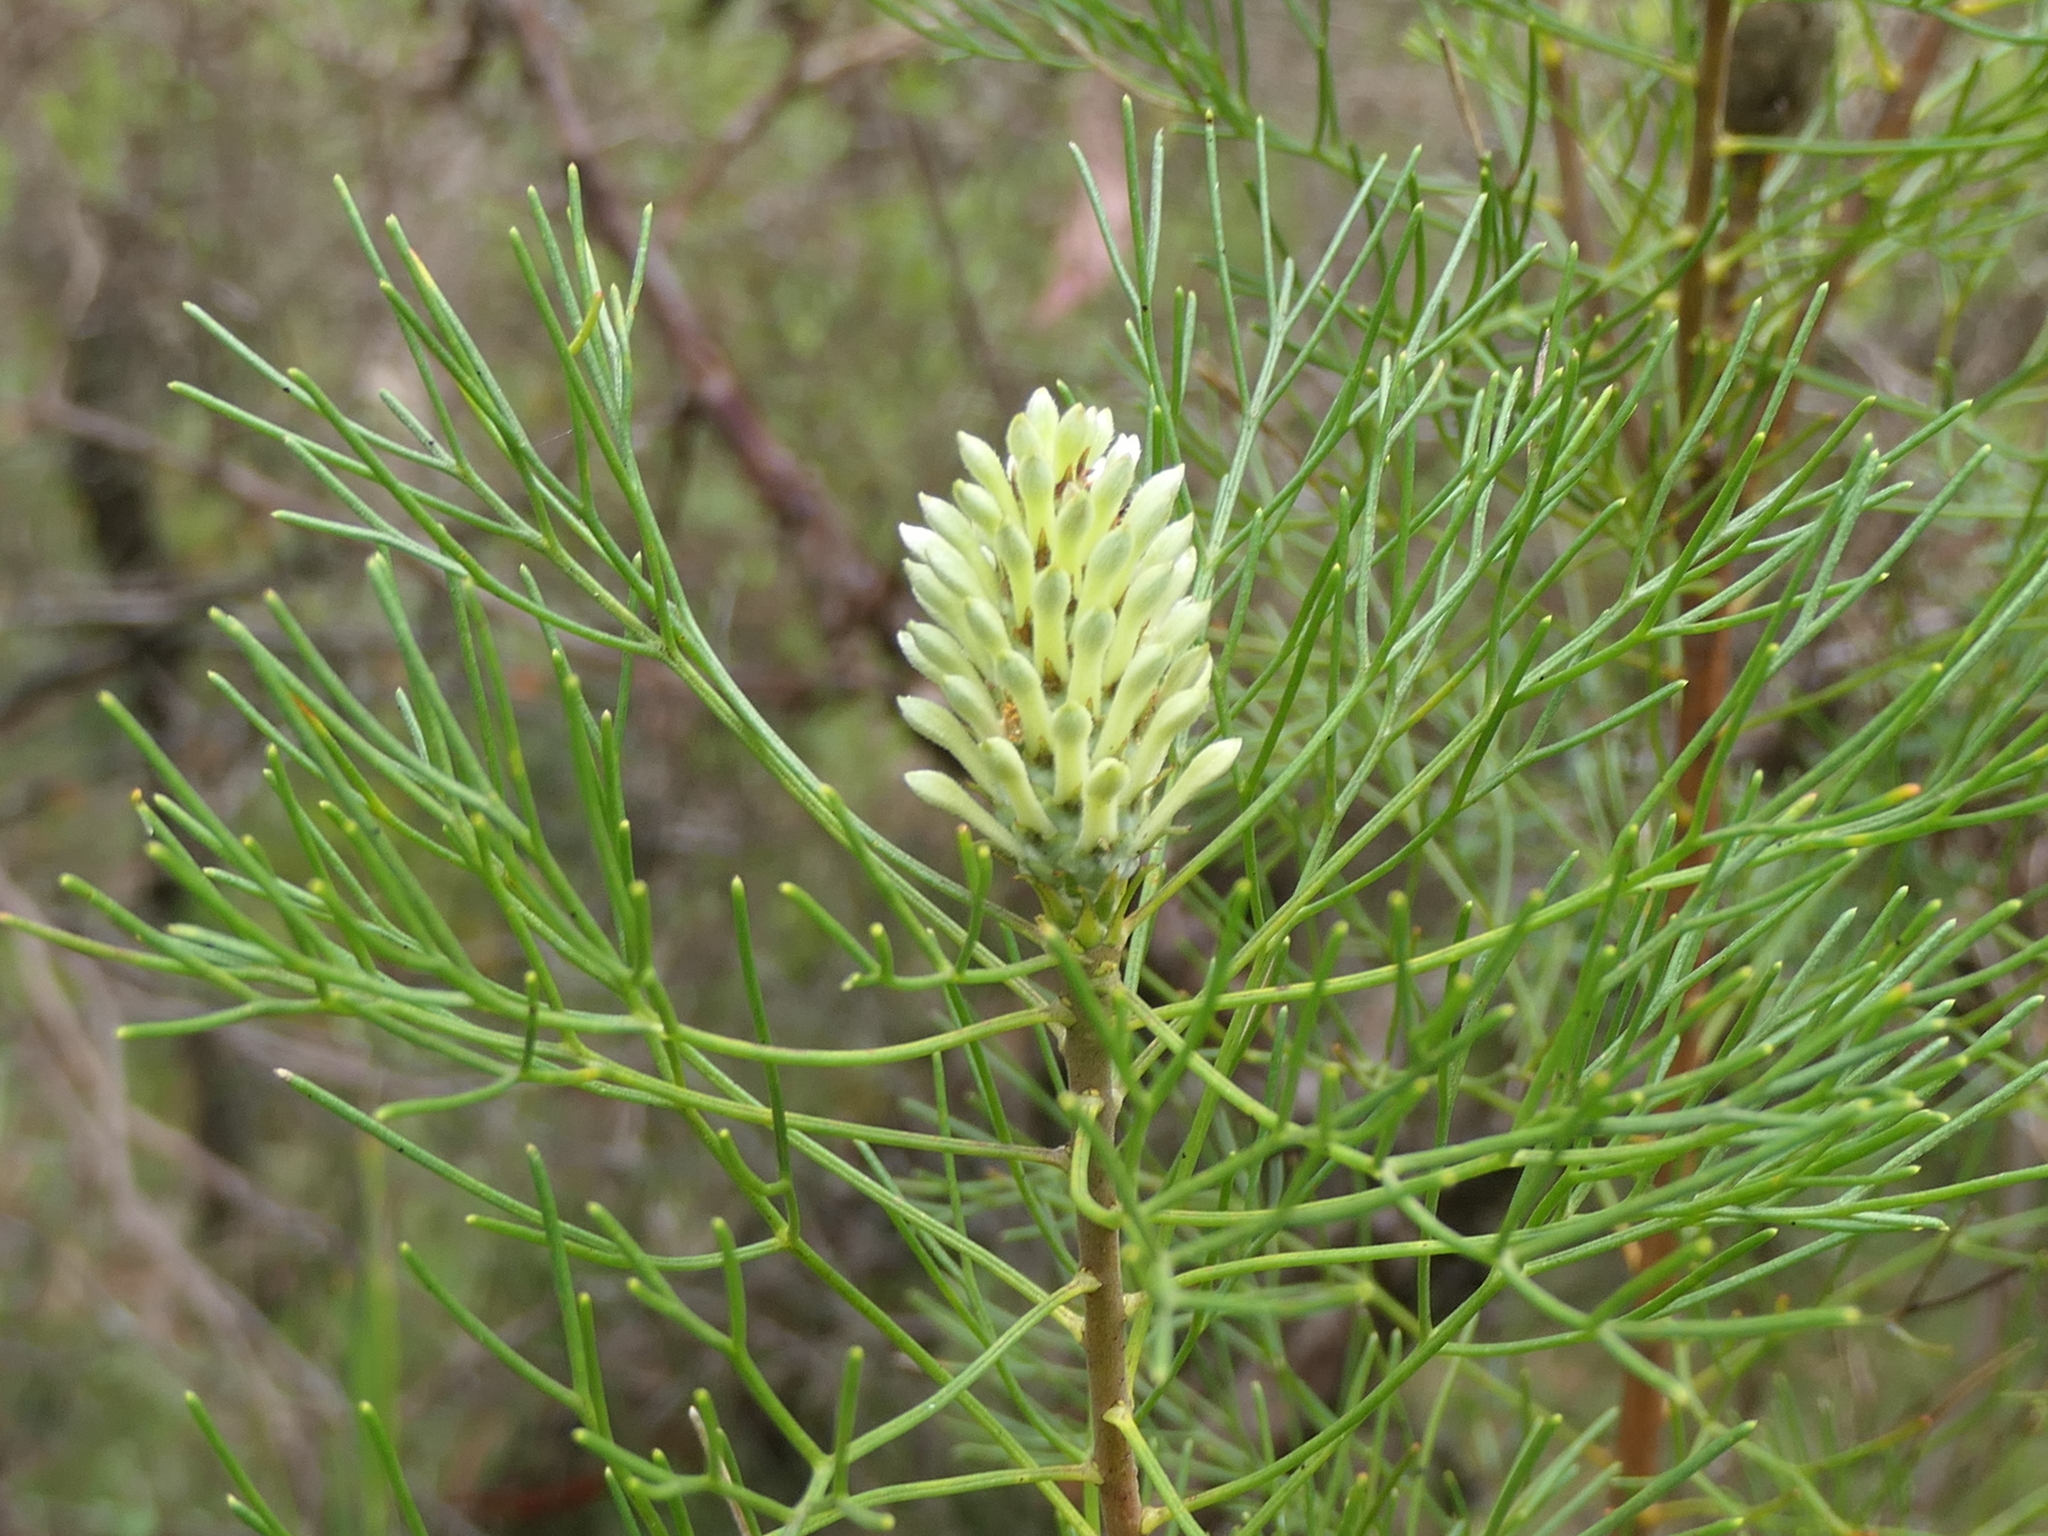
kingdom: Plantae
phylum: Tracheophyta
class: Magnoliopsida
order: Proteales
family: Proteaceae
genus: Petrophile
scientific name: Petrophile pulchella
